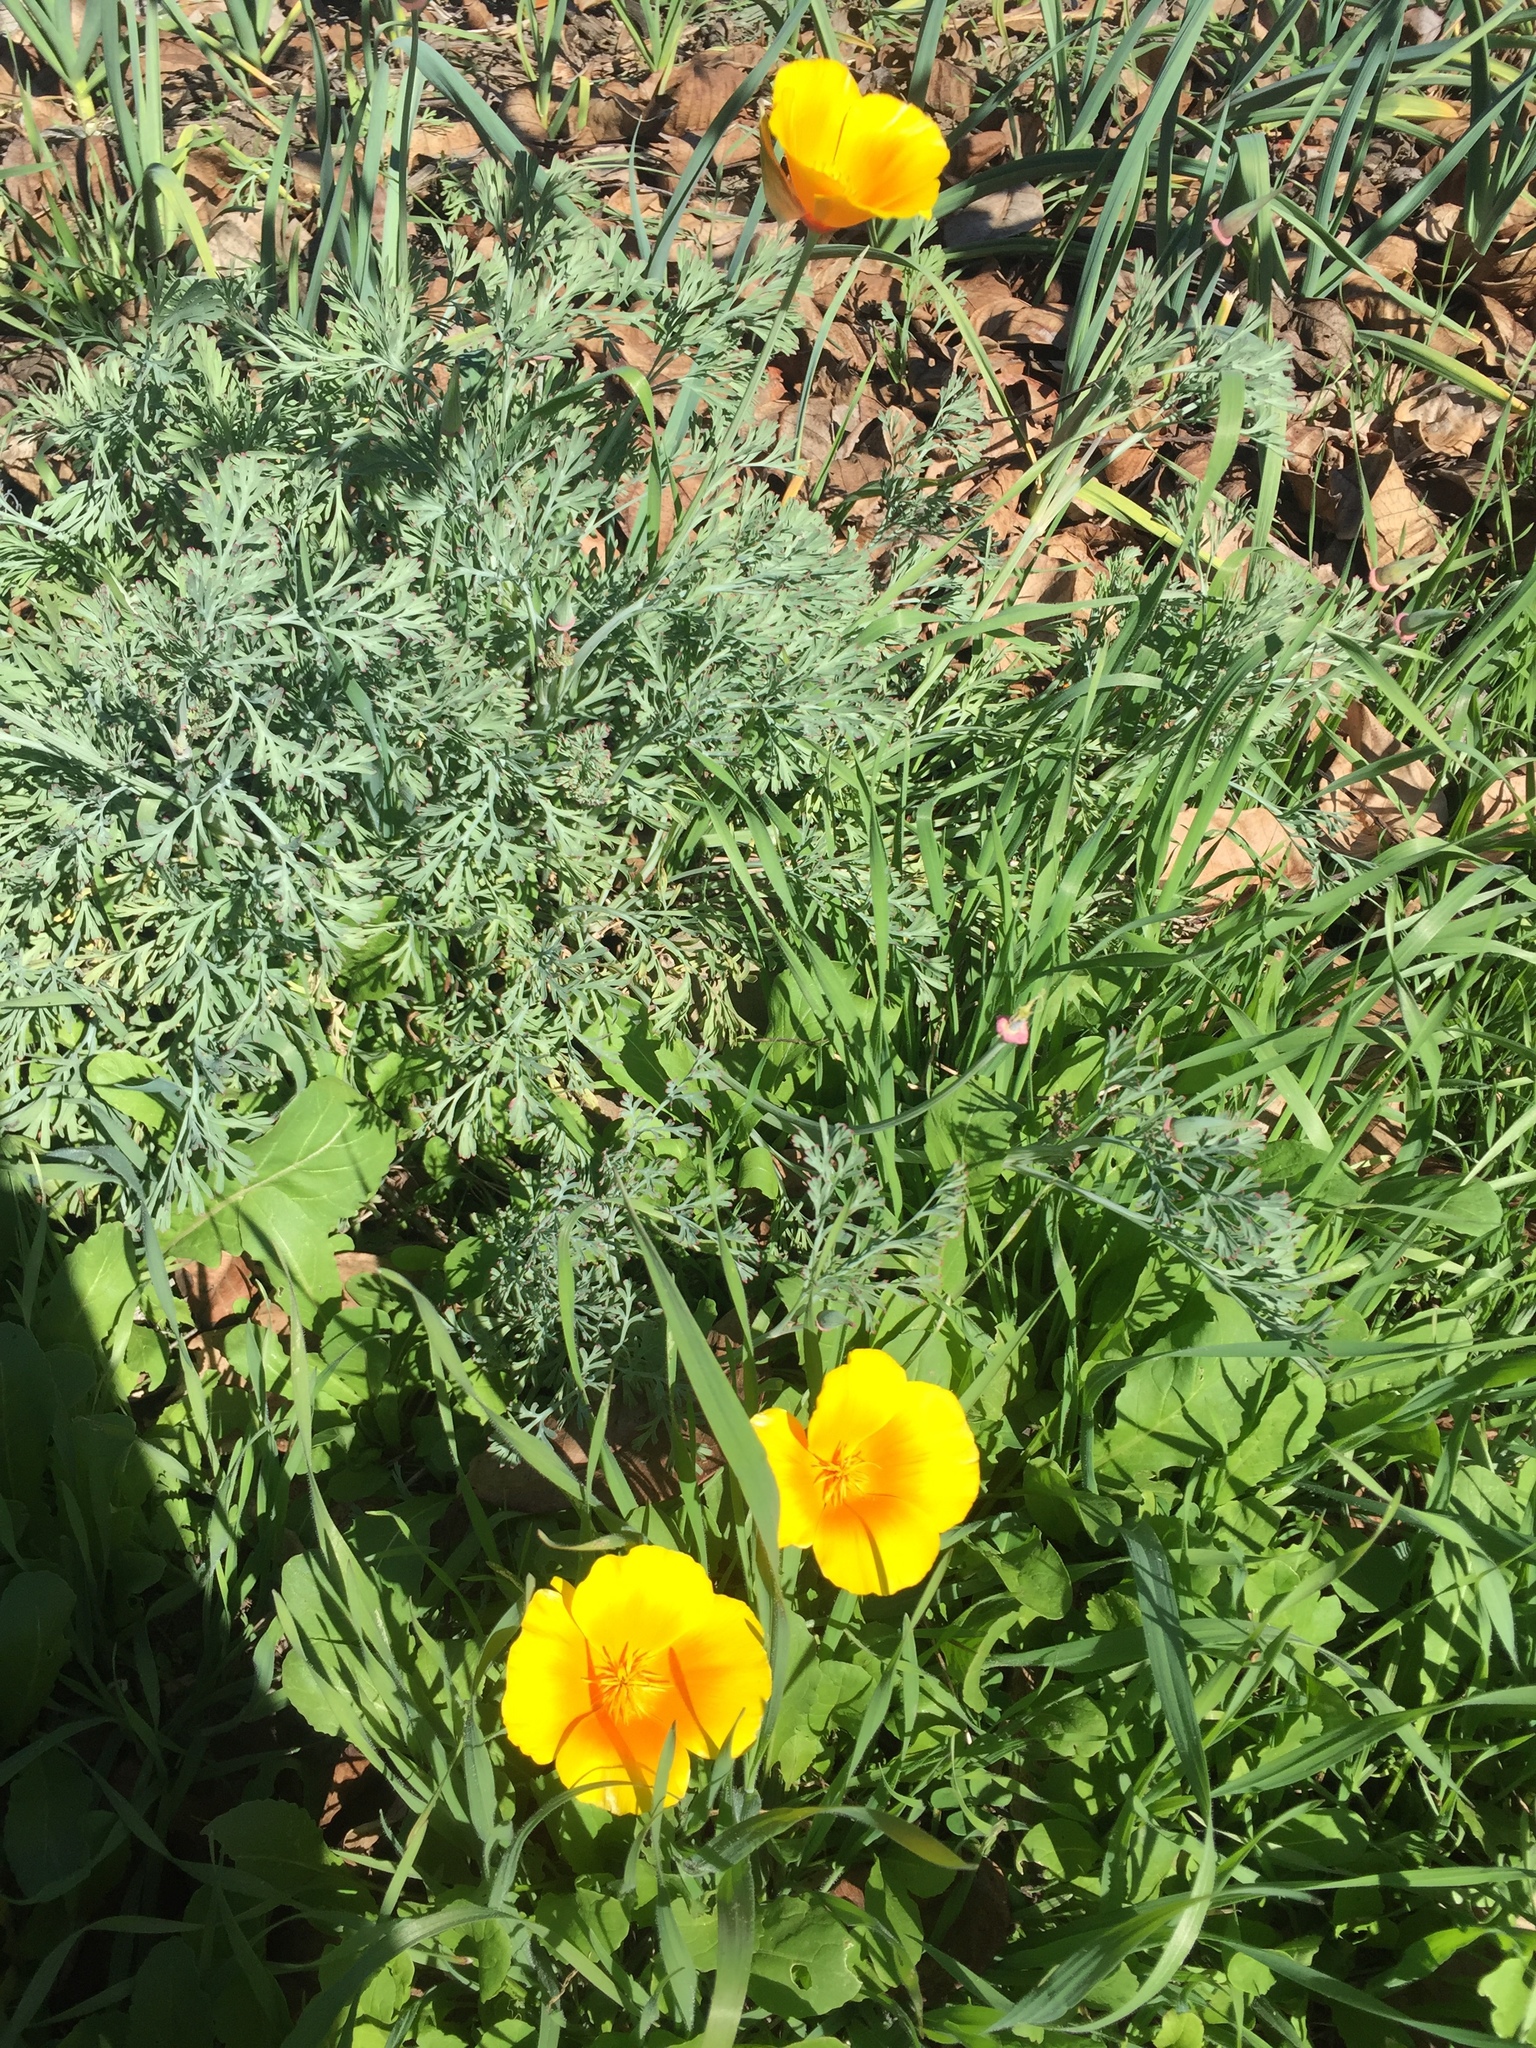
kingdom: Plantae
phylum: Tracheophyta
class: Magnoliopsida
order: Ranunculales
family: Papaveraceae
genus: Eschscholzia
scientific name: Eschscholzia californica
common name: California poppy
